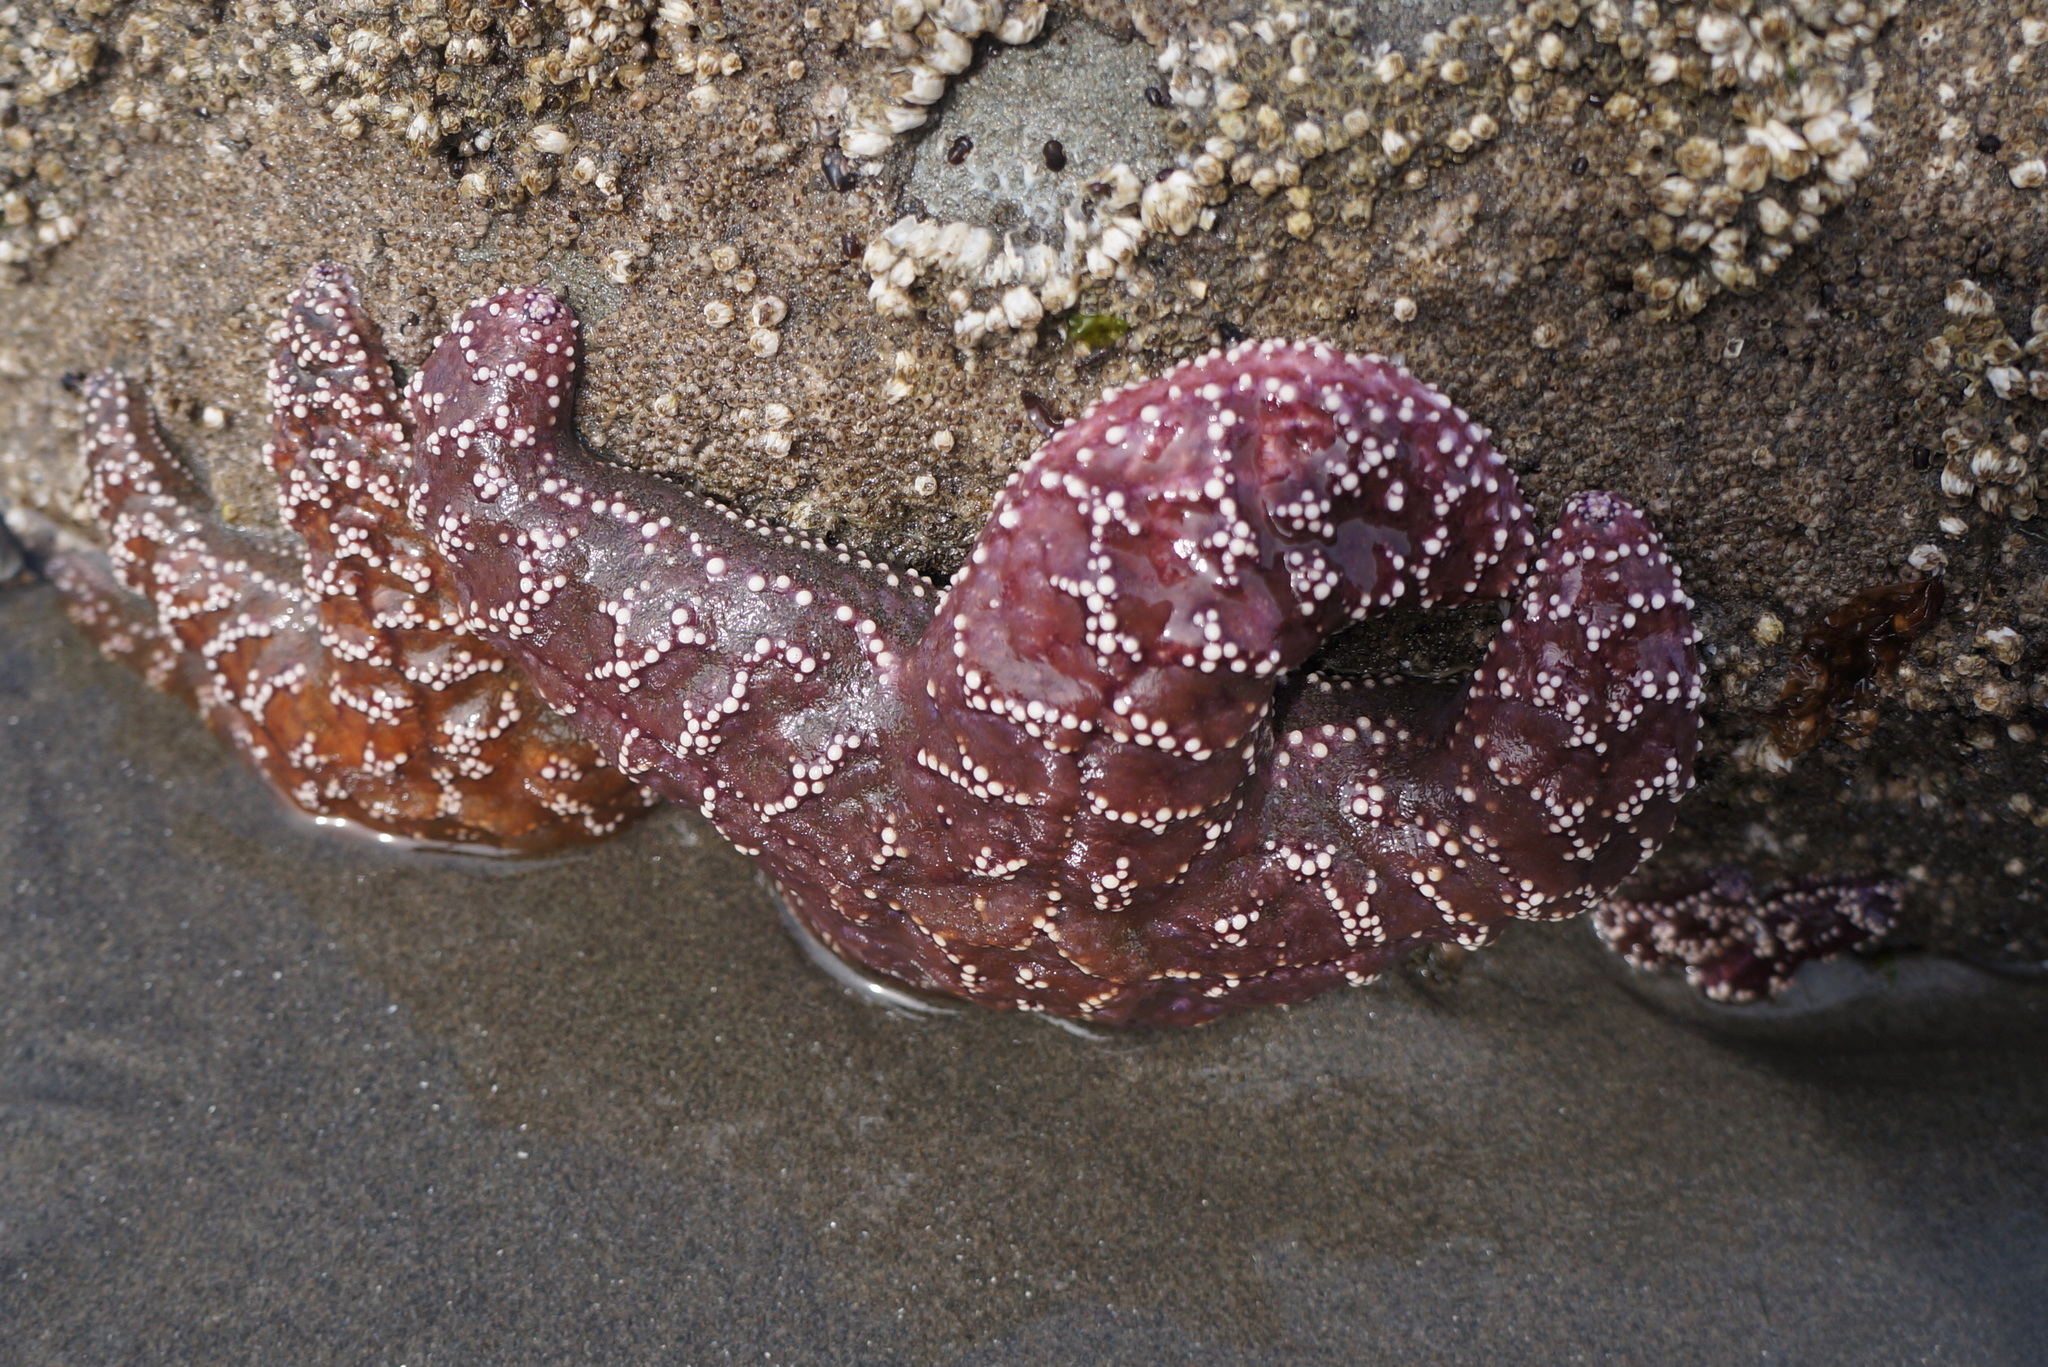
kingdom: Animalia
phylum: Echinodermata
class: Asteroidea
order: Forcipulatida
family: Asteriidae
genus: Pisaster
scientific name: Pisaster ochraceus
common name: Ochre stars
